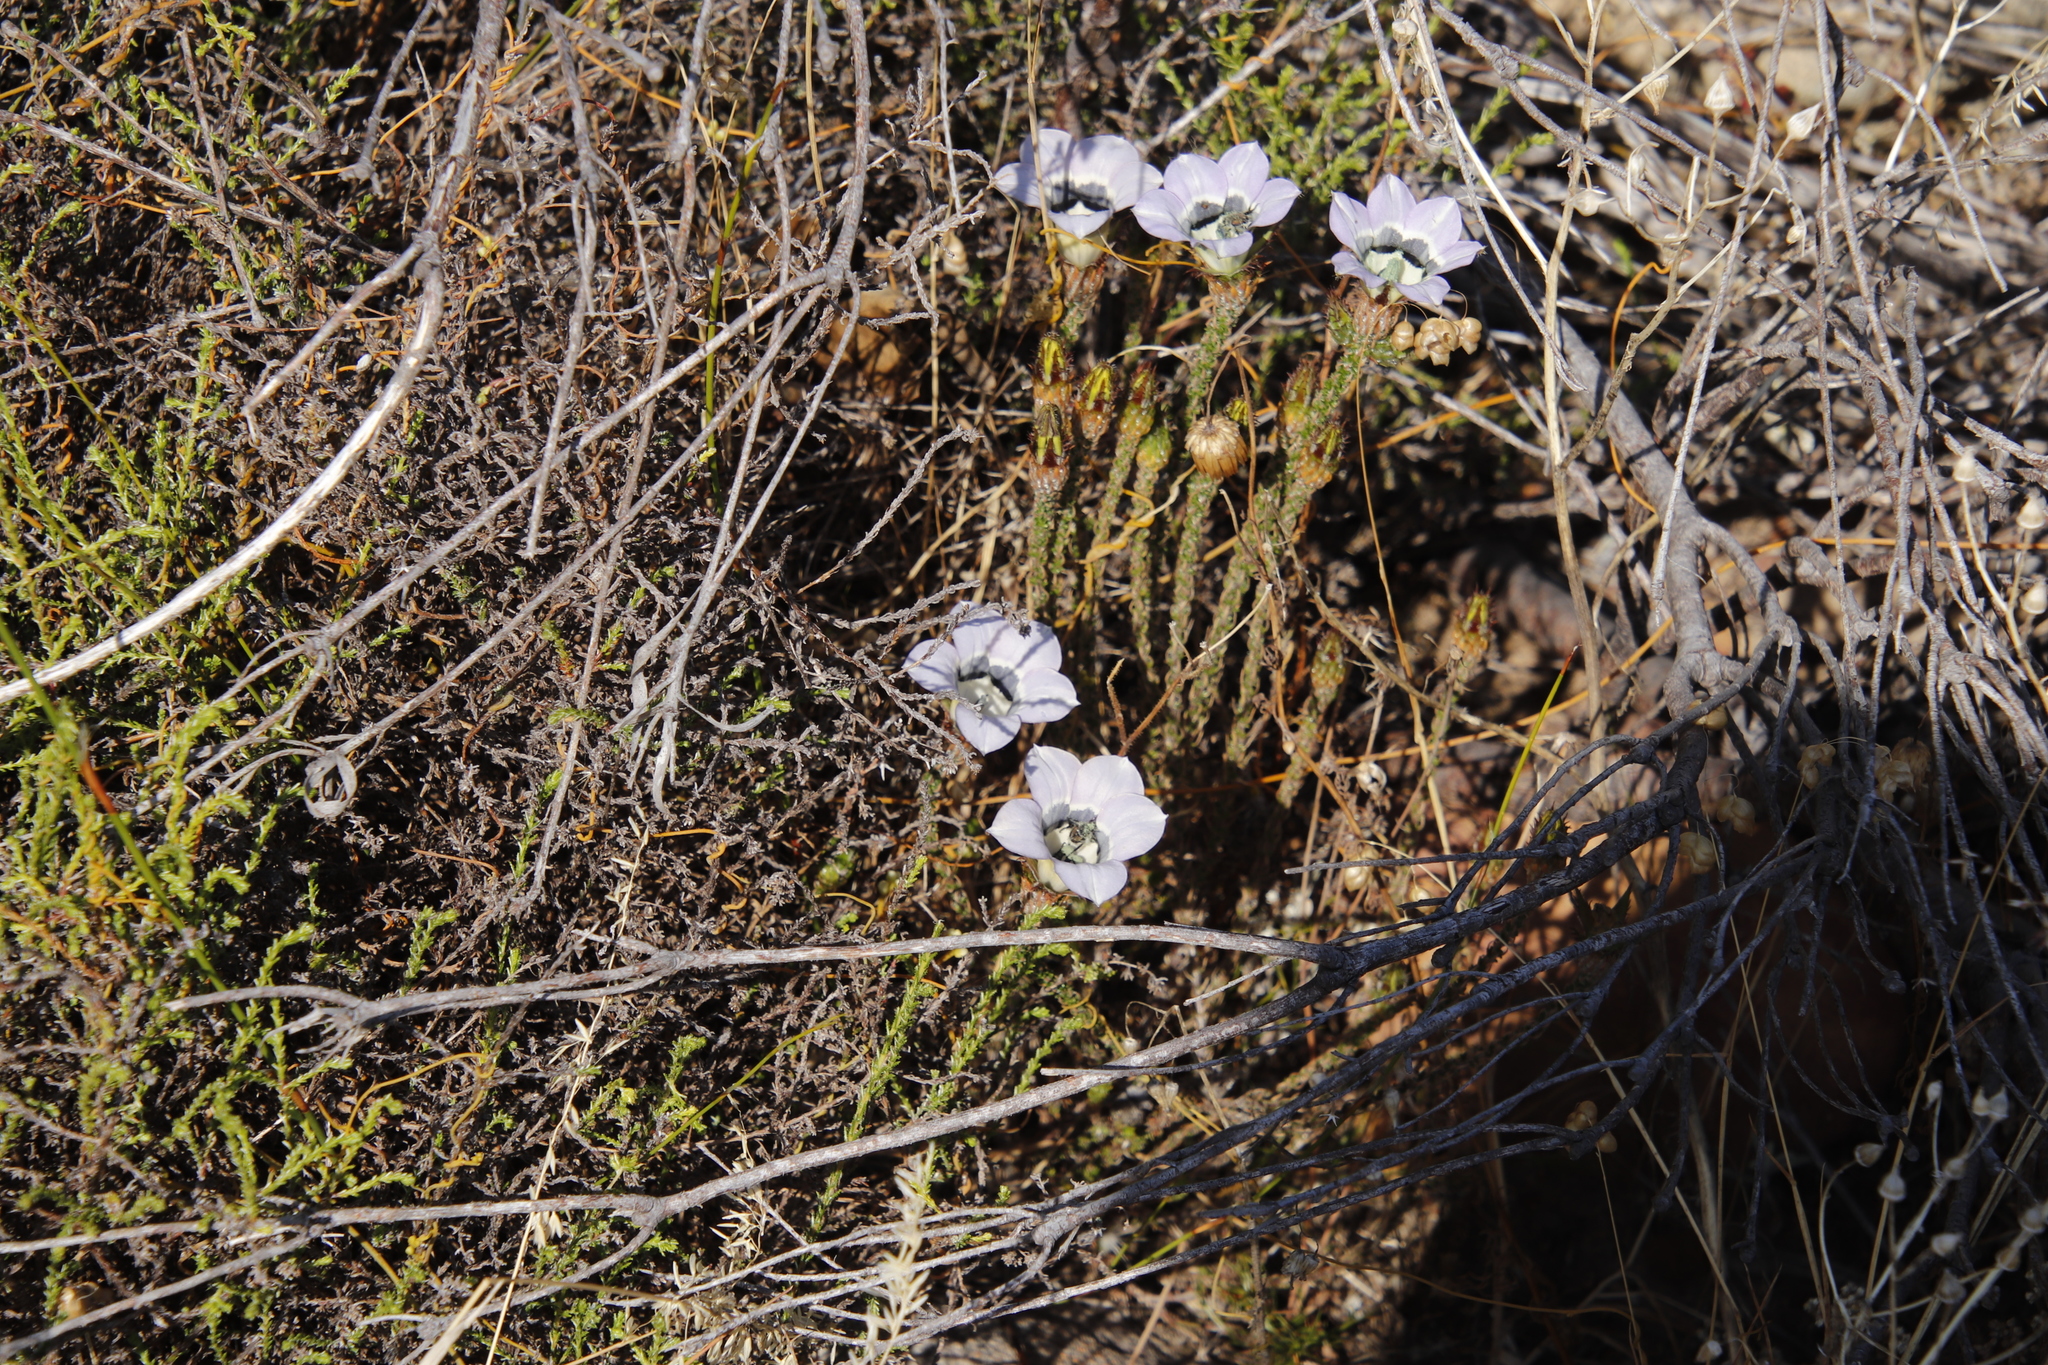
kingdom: Plantae
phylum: Tracheophyta
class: Magnoliopsida
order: Asterales
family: Campanulaceae
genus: Roella
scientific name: Roella ciliata
